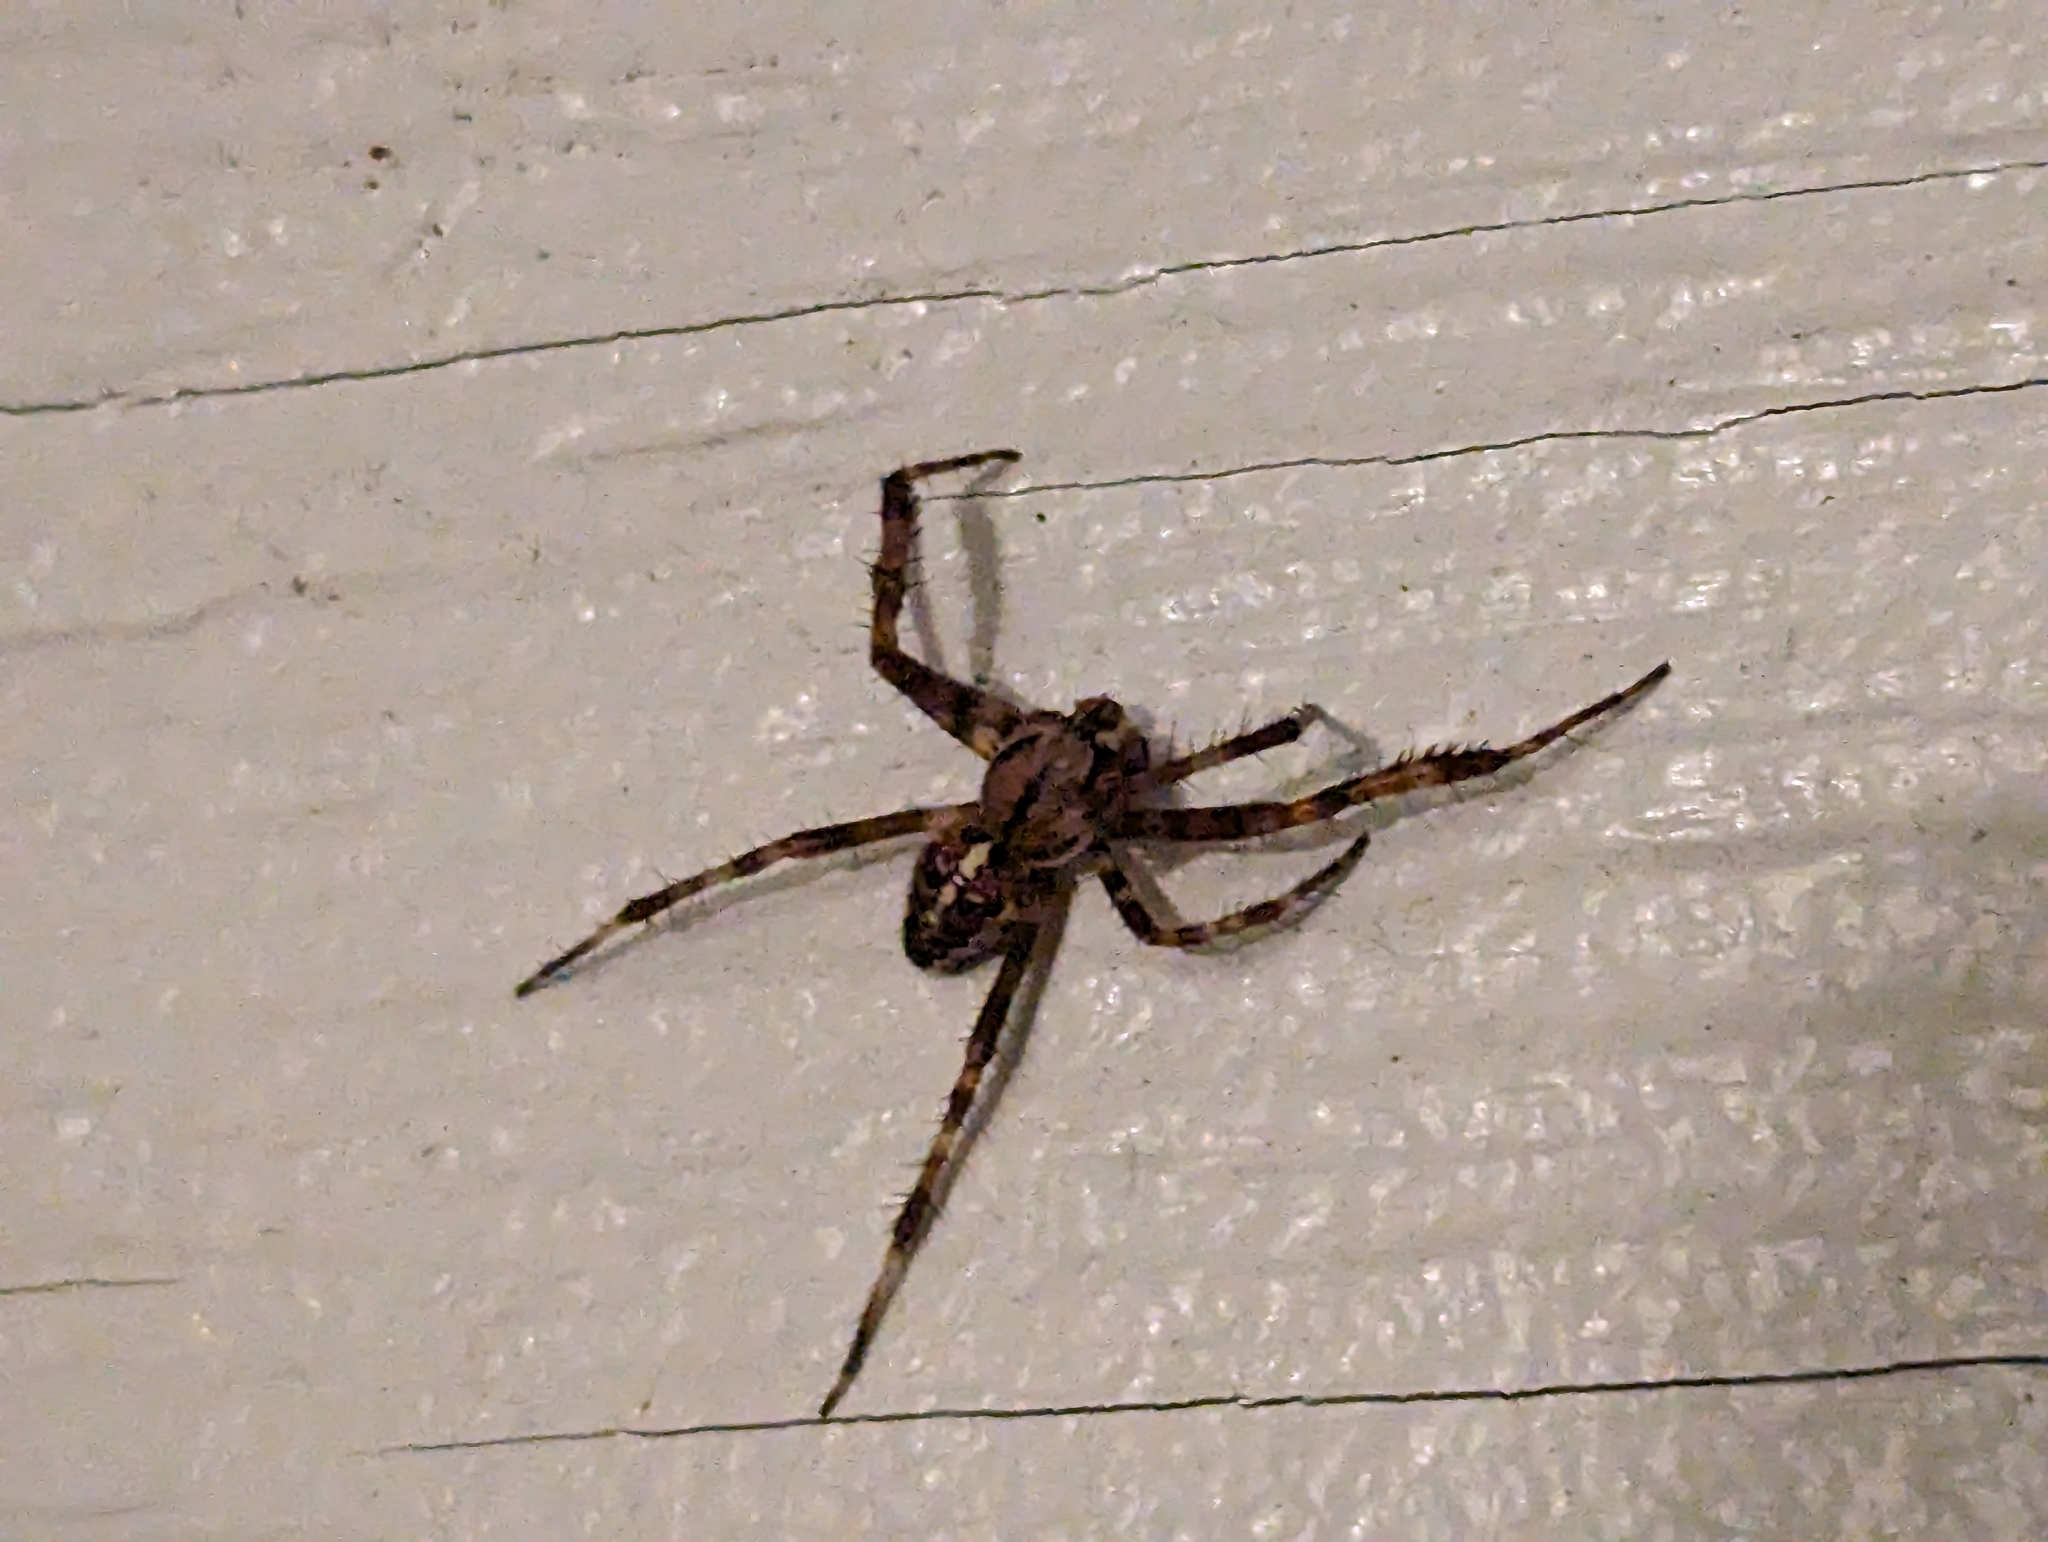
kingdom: Animalia
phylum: Arthropoda
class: Arachnida
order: Araneae
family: Araneidae
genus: Araneus
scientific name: Araneus diadematus
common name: Cross orbweaver
